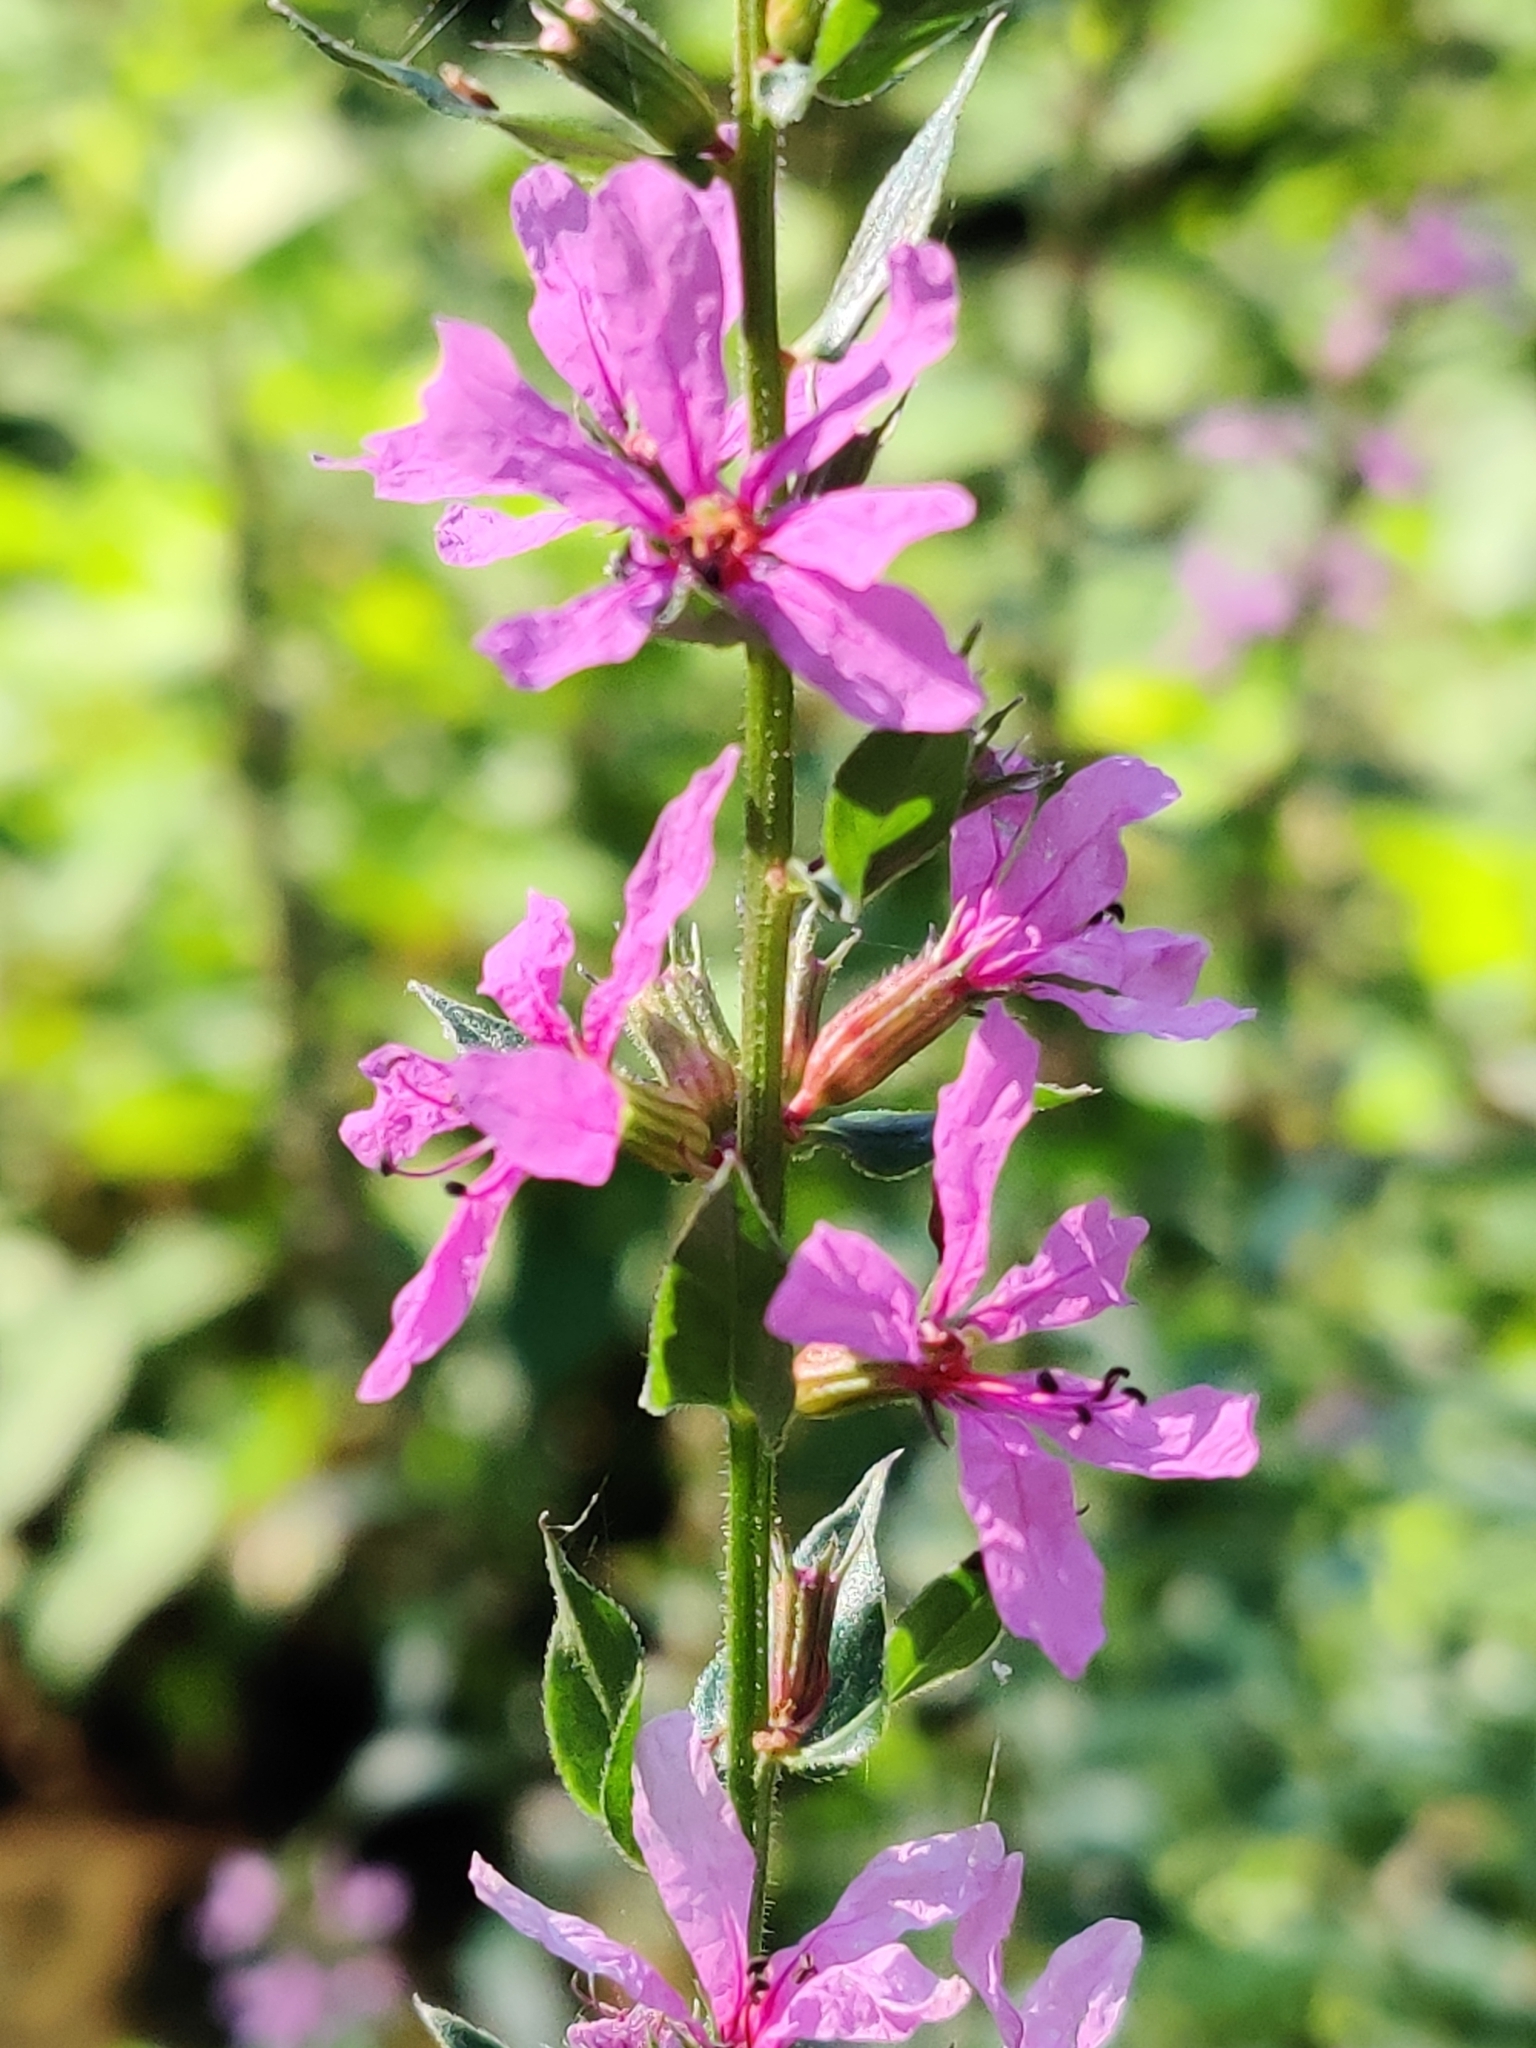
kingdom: Plantae
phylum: Tracheophyta
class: Magnoliopsida
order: Myrtales
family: Lythraceae
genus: Lythrum
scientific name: Lythrum salicaria
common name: Purple loosestrife
